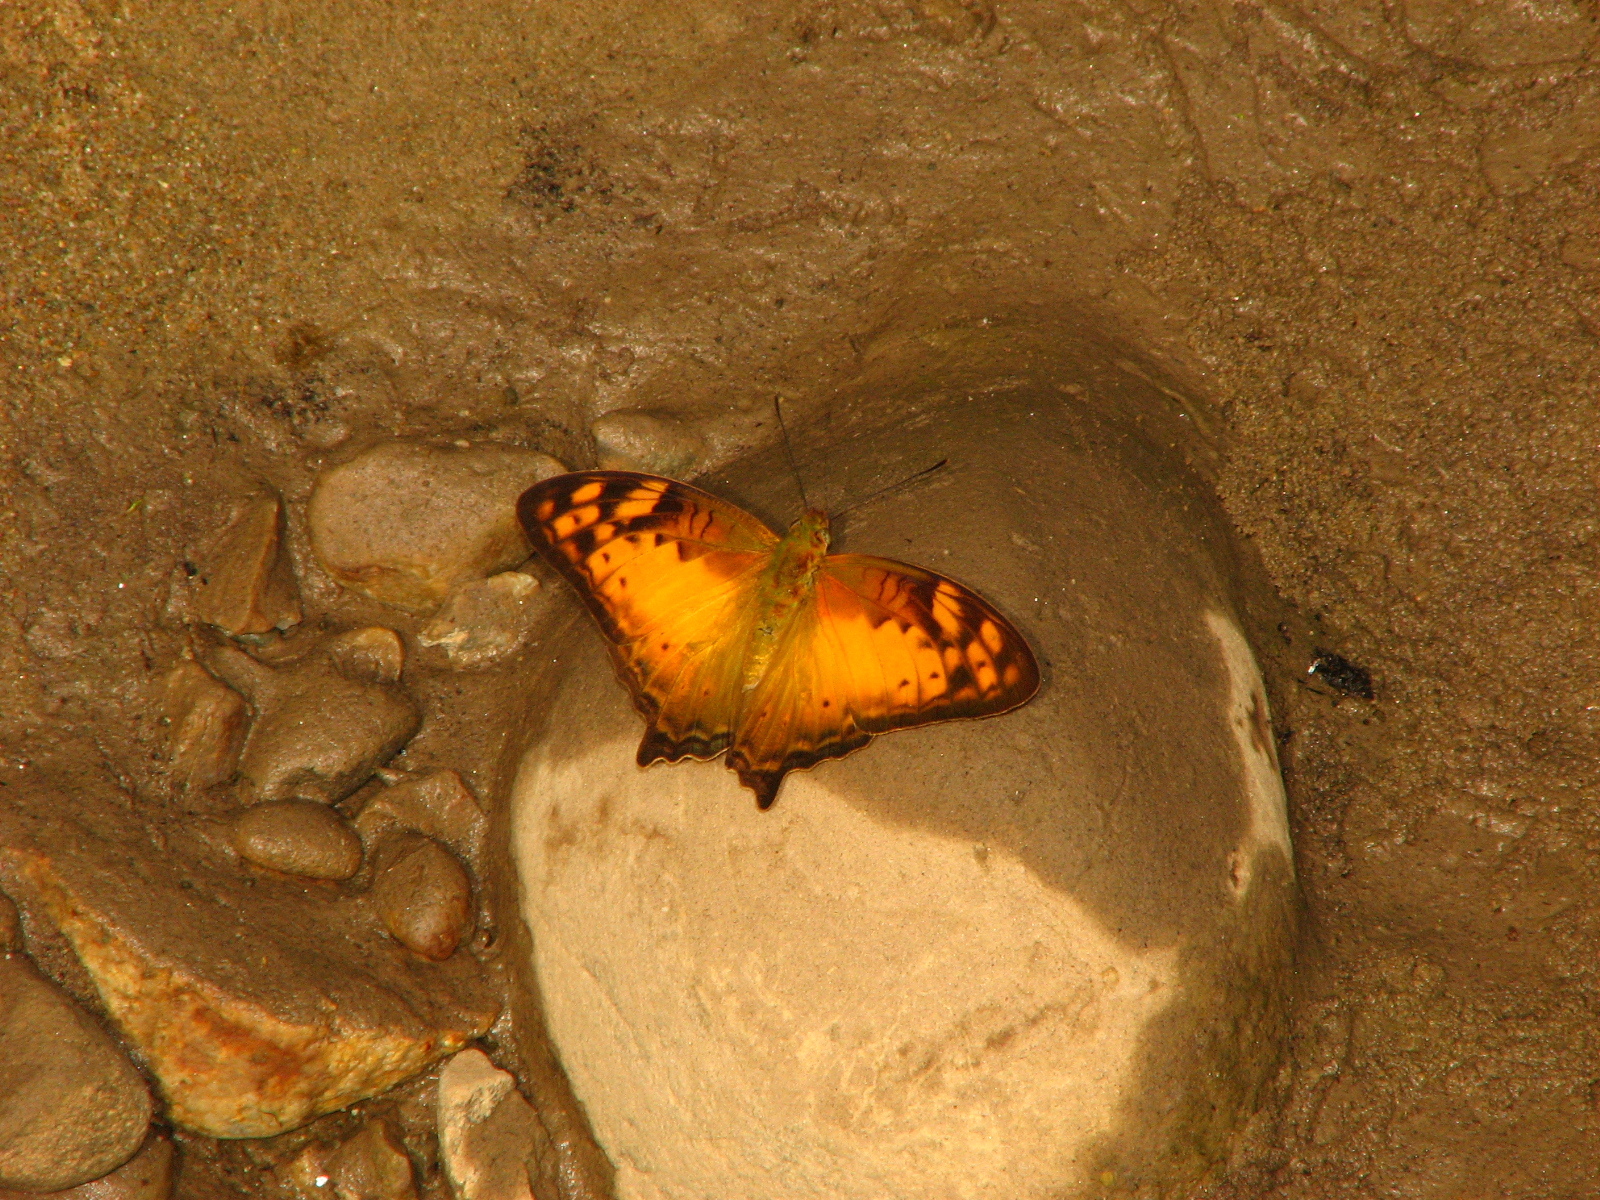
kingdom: Animalia
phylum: Arthropoda
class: Insecta
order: Lepidoptera
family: Nymphalidae
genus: Vagrans
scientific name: Vagrans sinha
